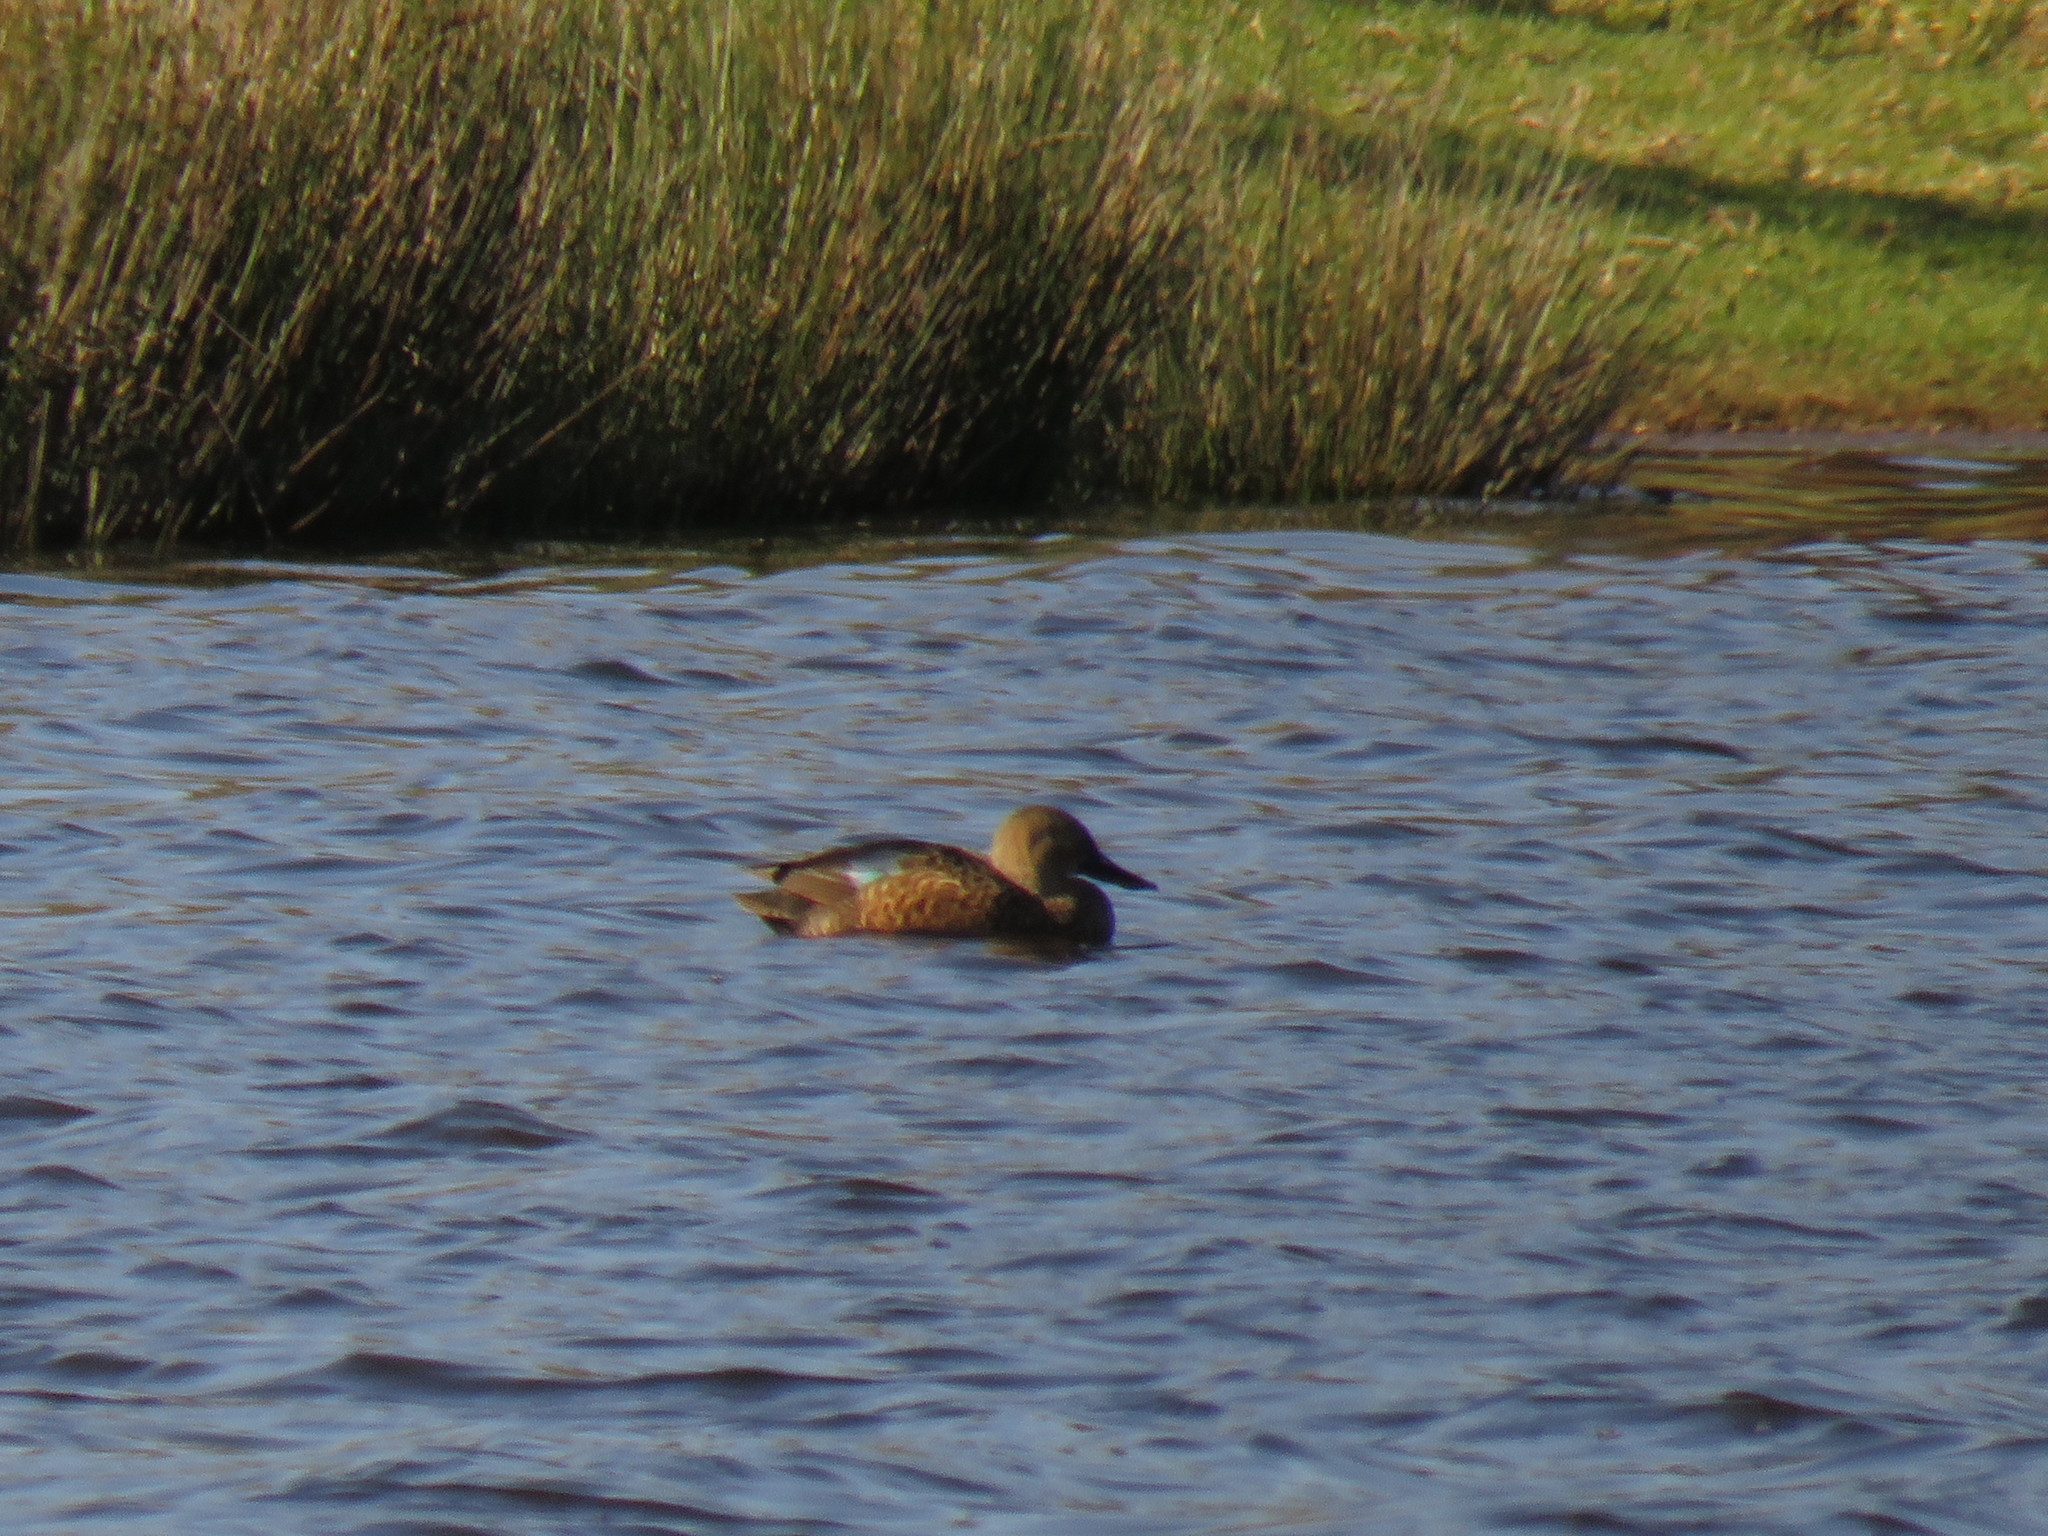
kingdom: Animalia
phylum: Chordata
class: Aves
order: Anseriformes
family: Anatidae
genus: Spatula
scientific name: Spatula smithii
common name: Cape shoveler
